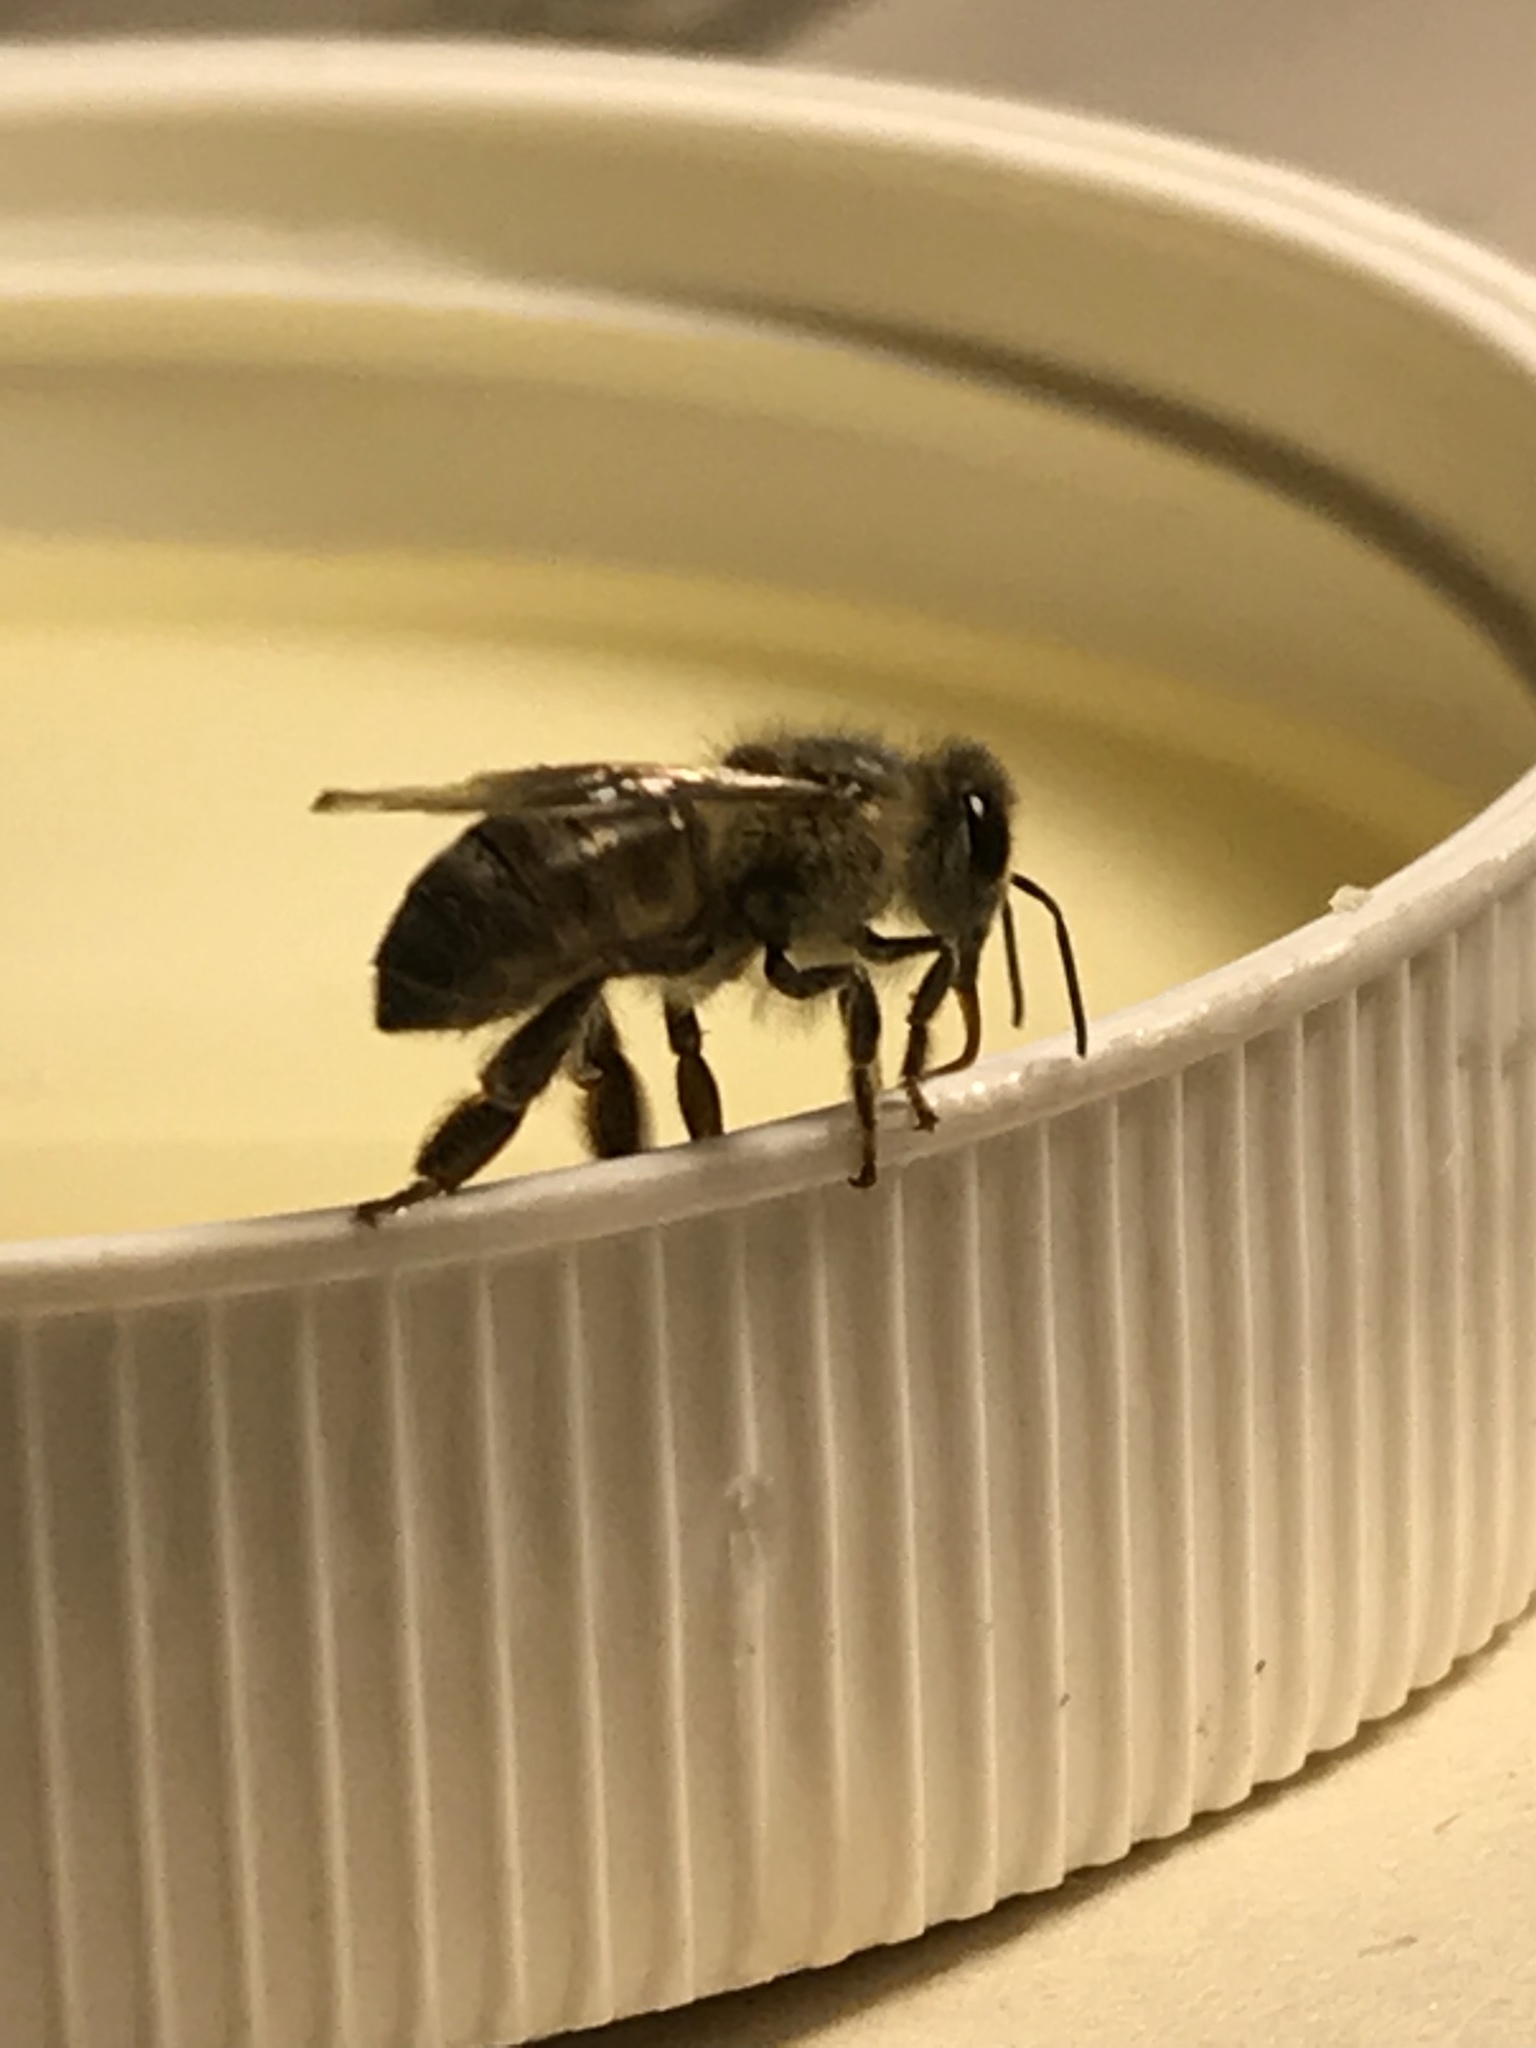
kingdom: Animalia
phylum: Arthropoda
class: Insecta
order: Hymenoptera
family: Apidae
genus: Apis
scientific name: Apis mellifera
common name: Honey bee
